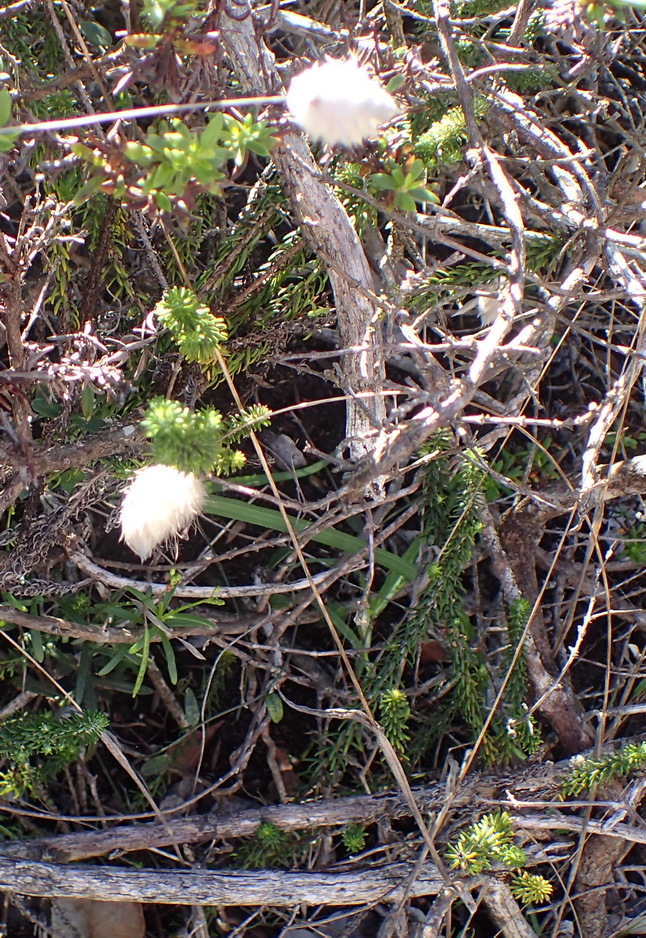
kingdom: Plantae
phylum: Tracheophyta
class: Liliopsida
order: Poales
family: Poaceae
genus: Lagurus
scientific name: Lagurus ovatus
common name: Hare's-tail
